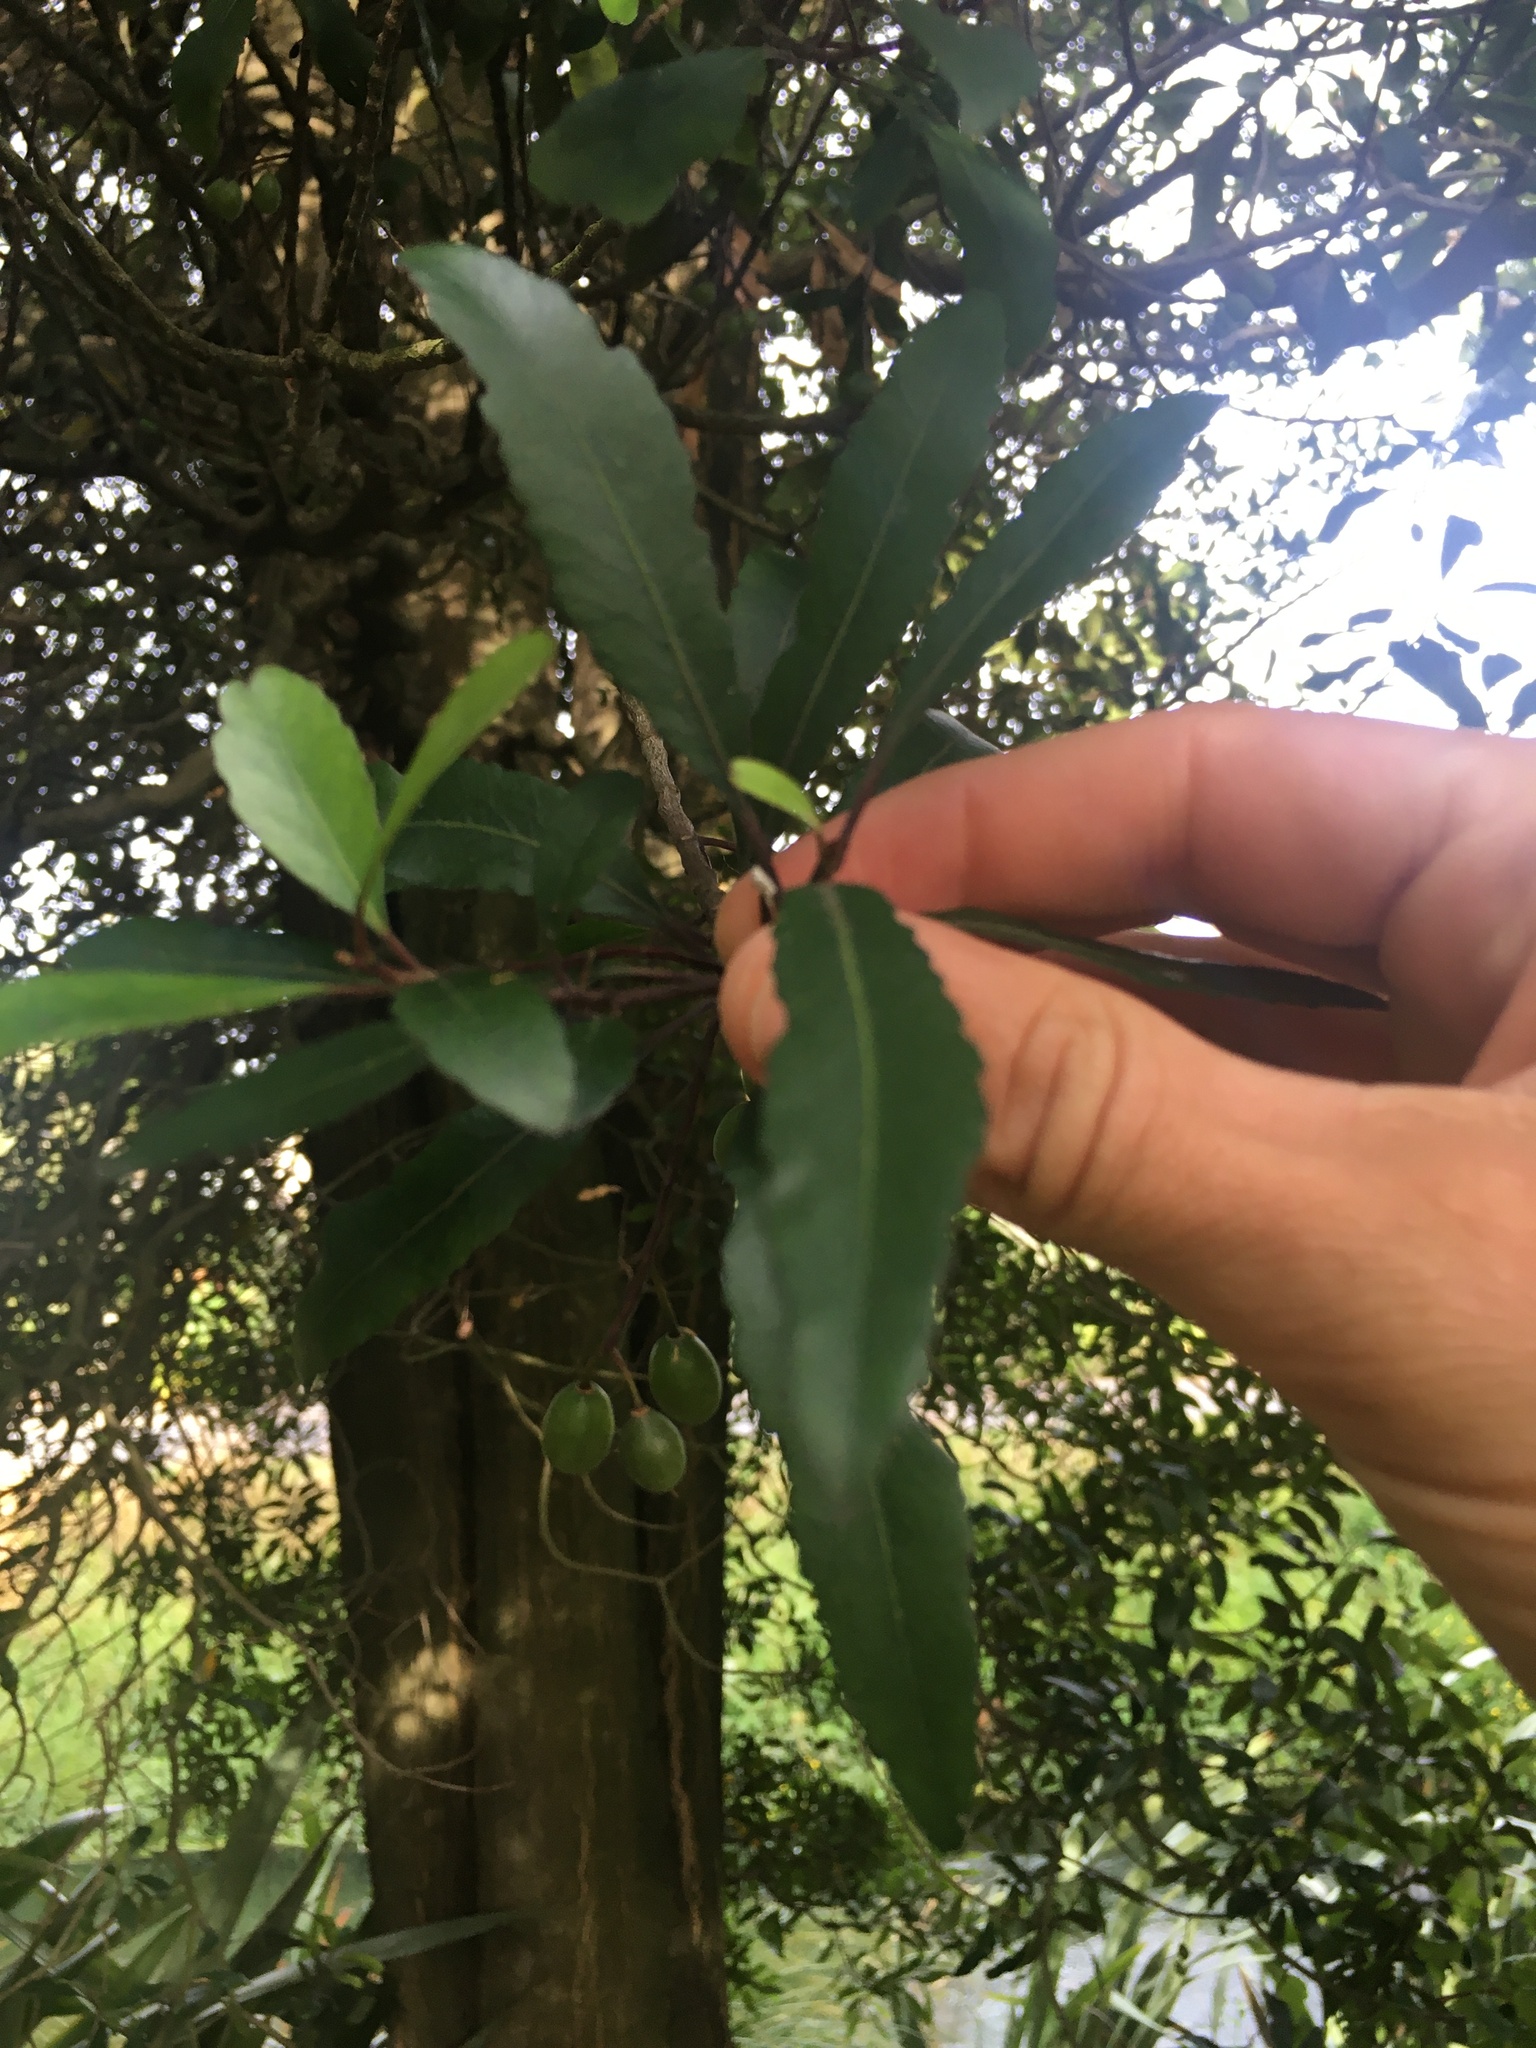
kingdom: Plantae
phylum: Tracheophyta
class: Magnoliopsida
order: Oxalidales
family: Elaeocarpaceae
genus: Elaeocarpus
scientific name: Elaeocarpus hookerianus
